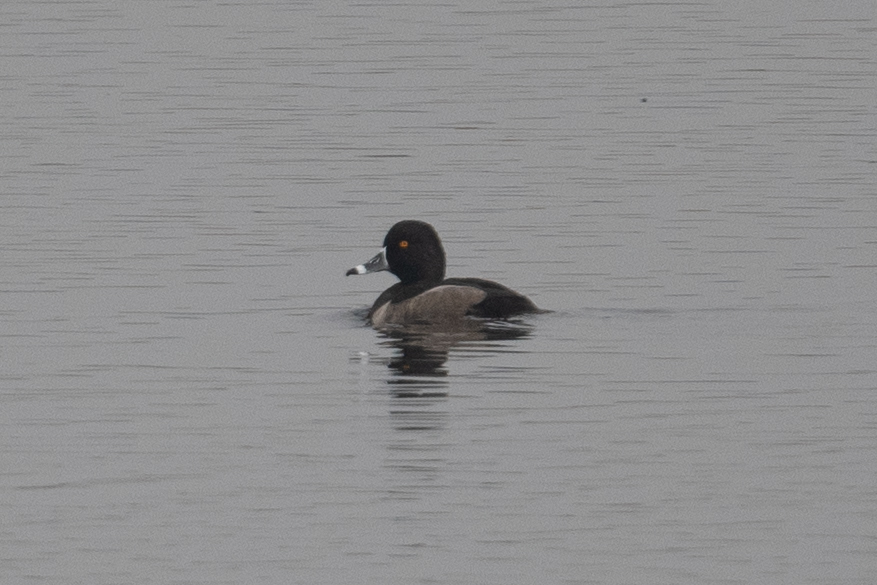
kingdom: Animalia
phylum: Chordata
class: Aves
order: Anseriformes
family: Anatidae
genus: Aythya
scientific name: Aythya collaris
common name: Ring-necked duck
